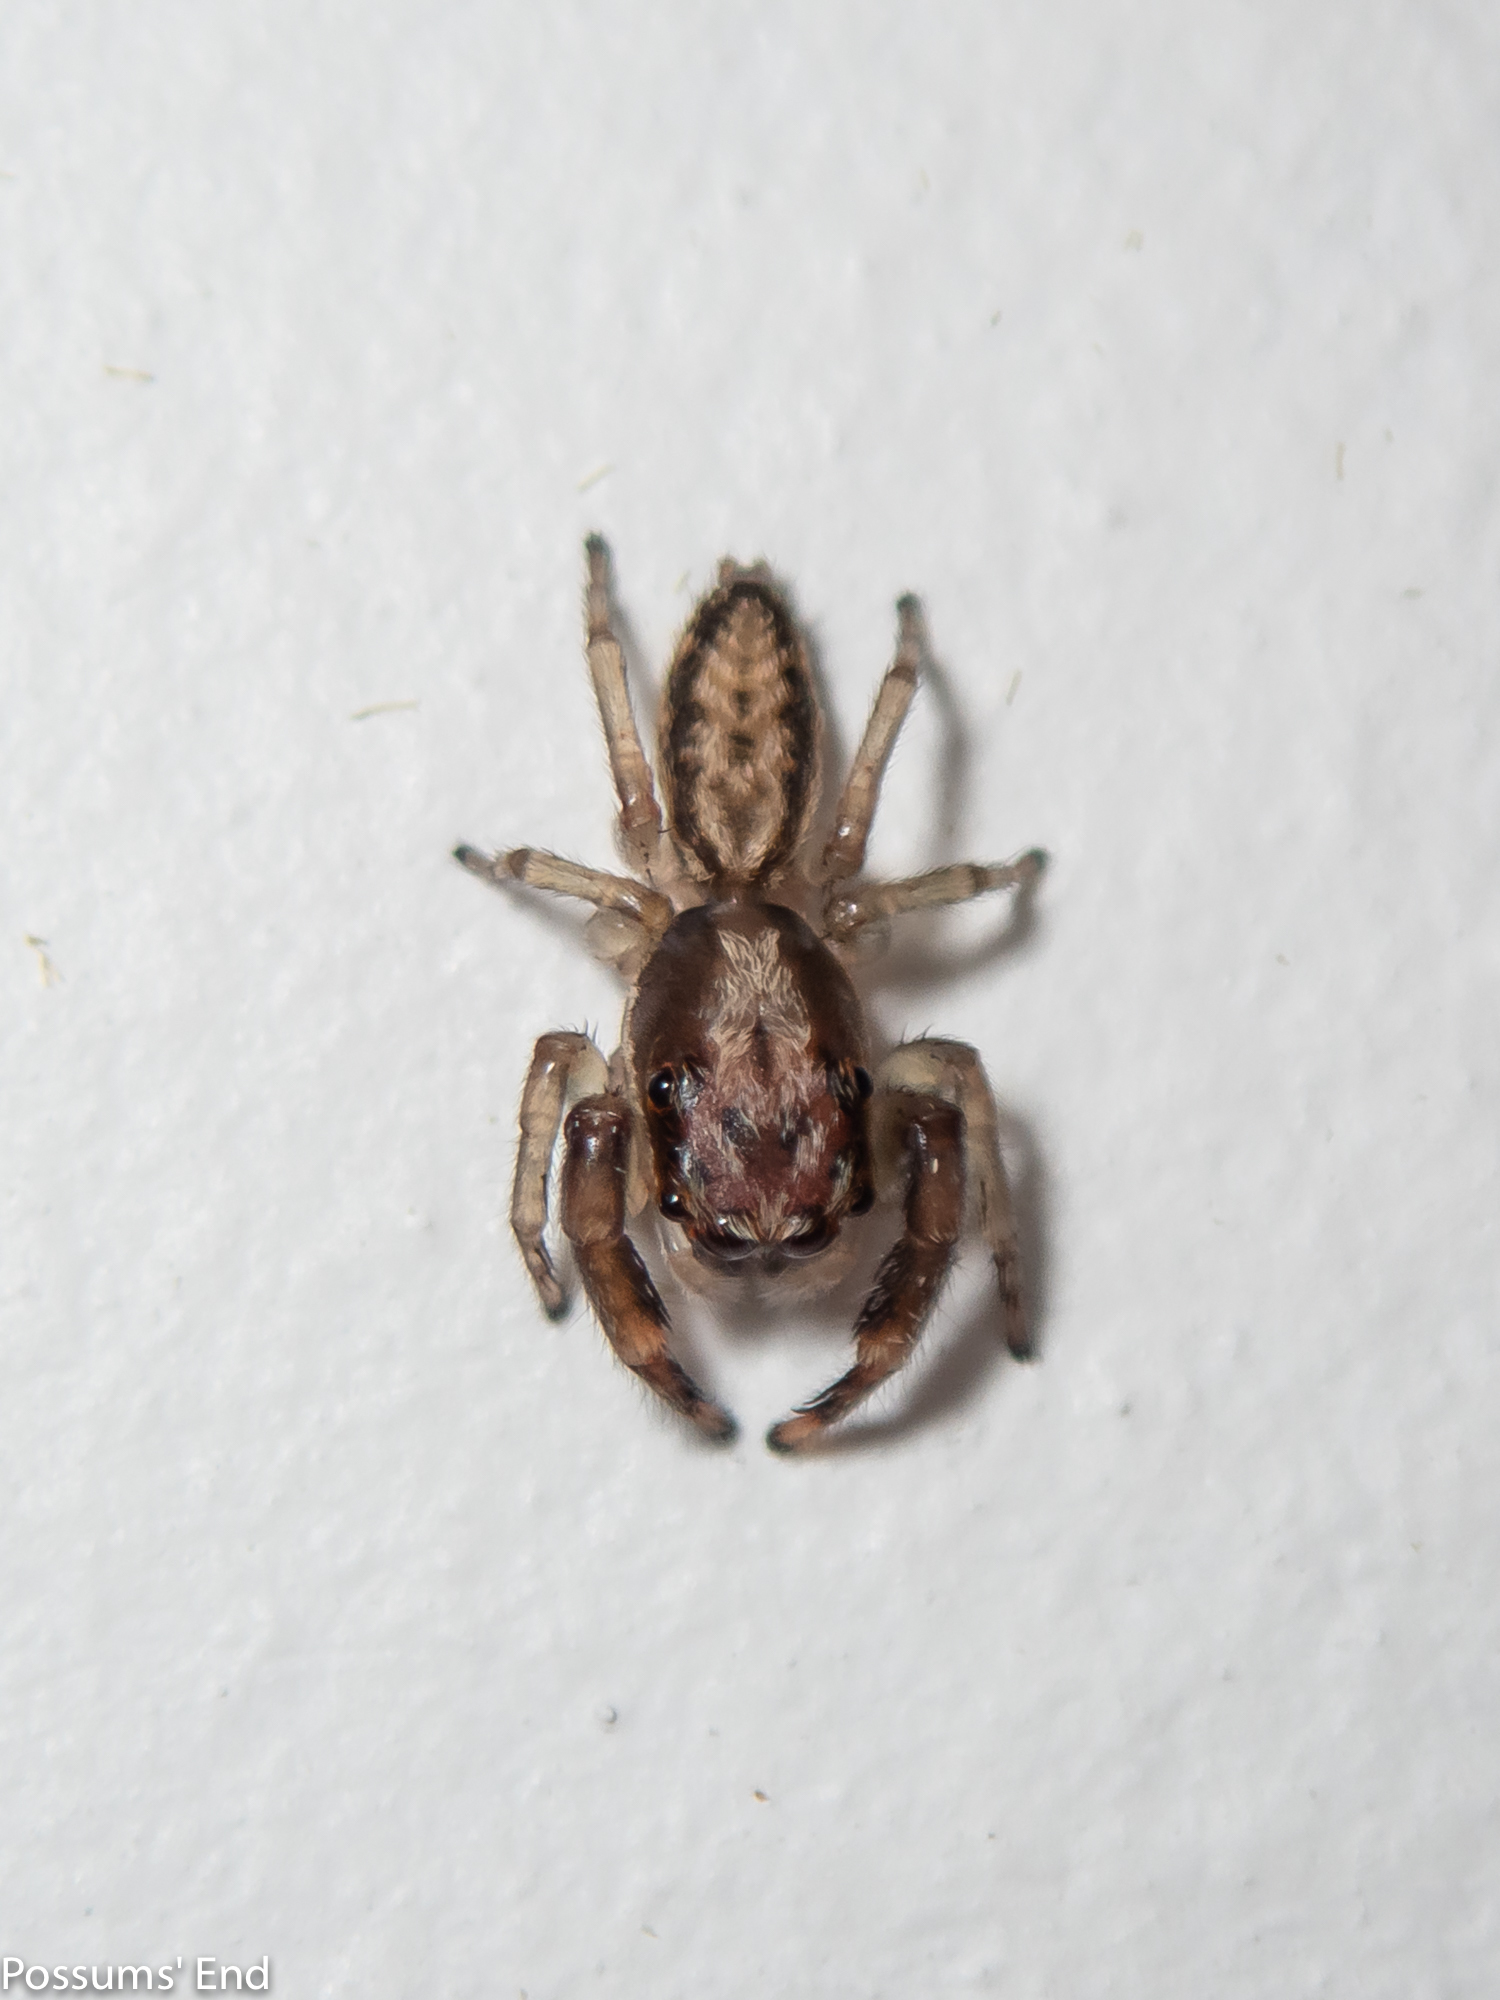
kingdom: Animalia
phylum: Arthropoda
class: Arachnida
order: Araneae
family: Salticidae
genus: Trite
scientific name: Trite mustilina
